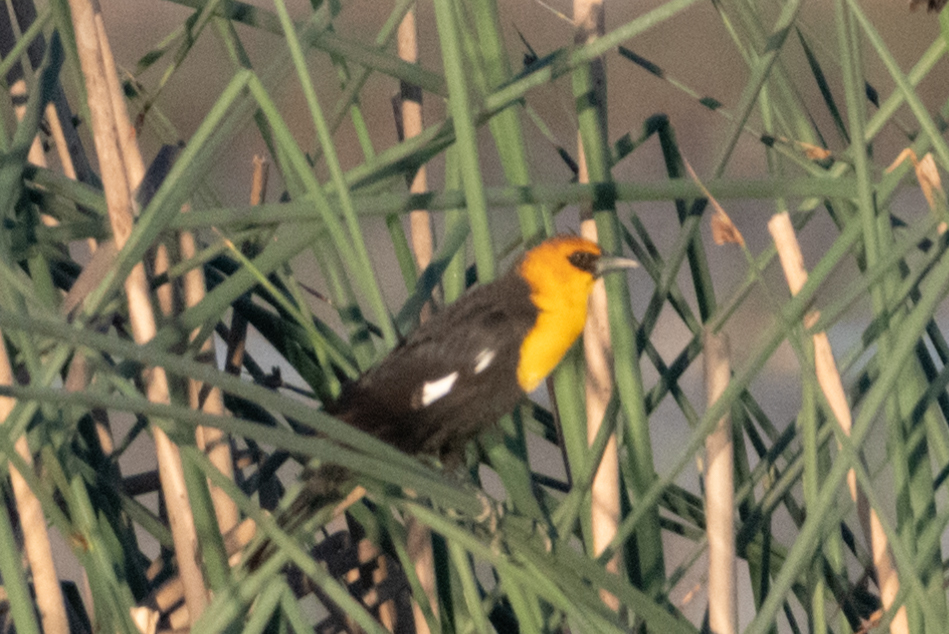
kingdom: Animalia
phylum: Chordata
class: Aves
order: Passeriformes
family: Icteridae
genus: Xanthocephalus
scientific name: Xanthocephalus xanthocephalus
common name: Yellow-headed blackbird
